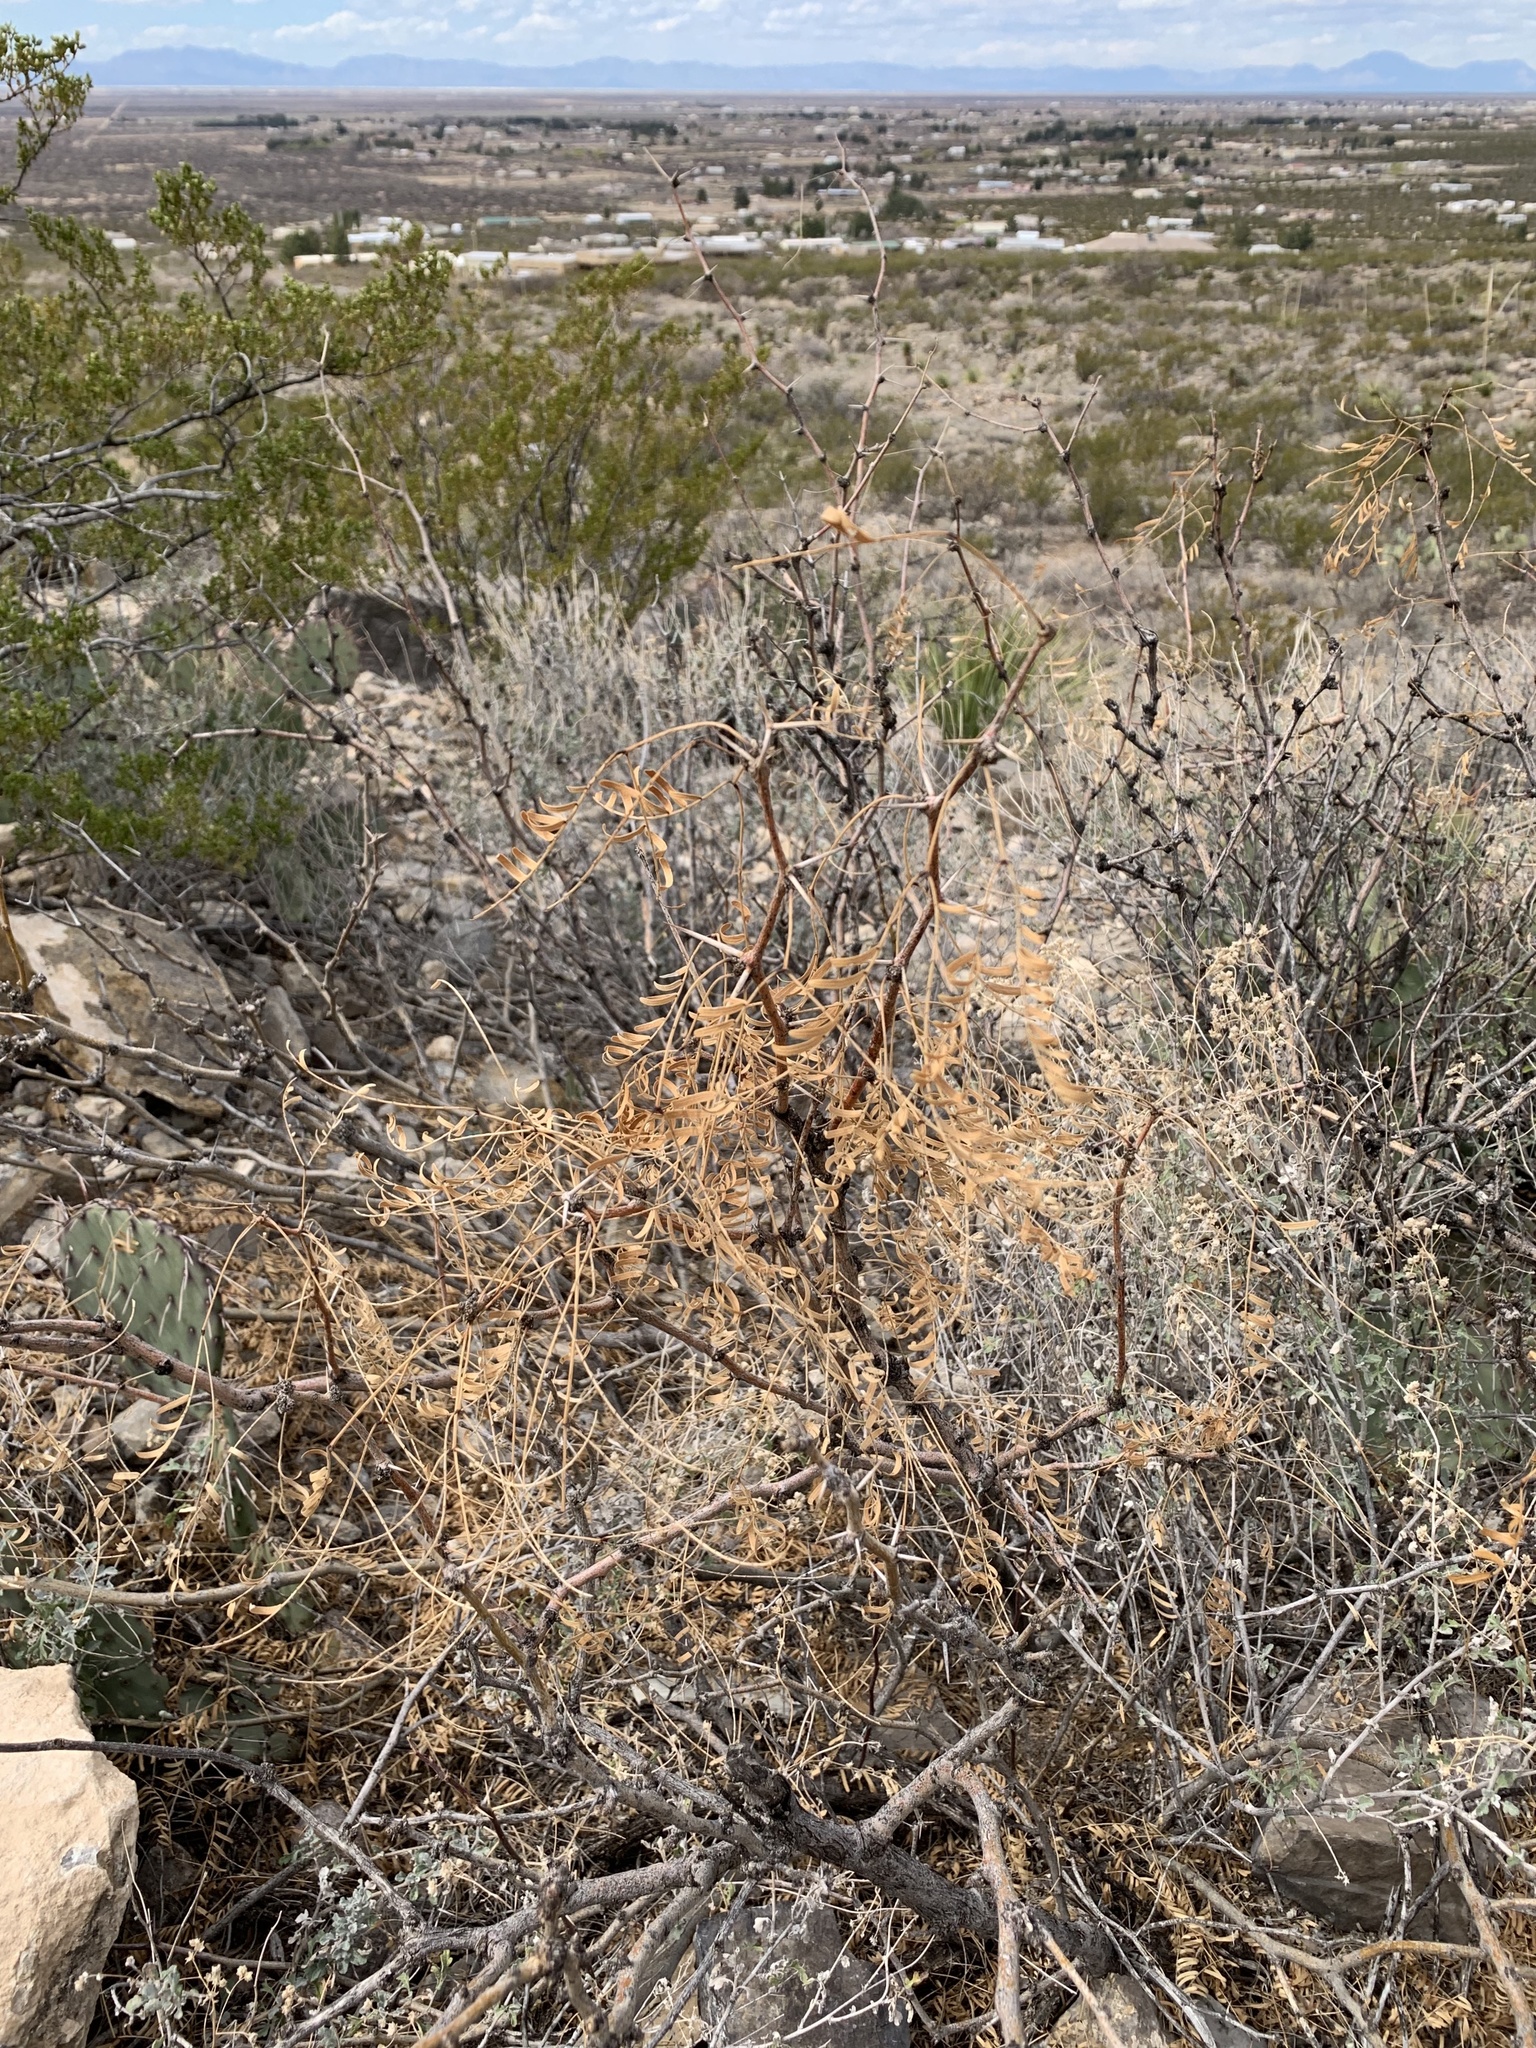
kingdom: Plantae
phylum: Tracheophyta
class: Magnoliopsida
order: Fabales
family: Fabaceae
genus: Prosopis
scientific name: Prosopis glandulosa
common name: Honey mesquite
